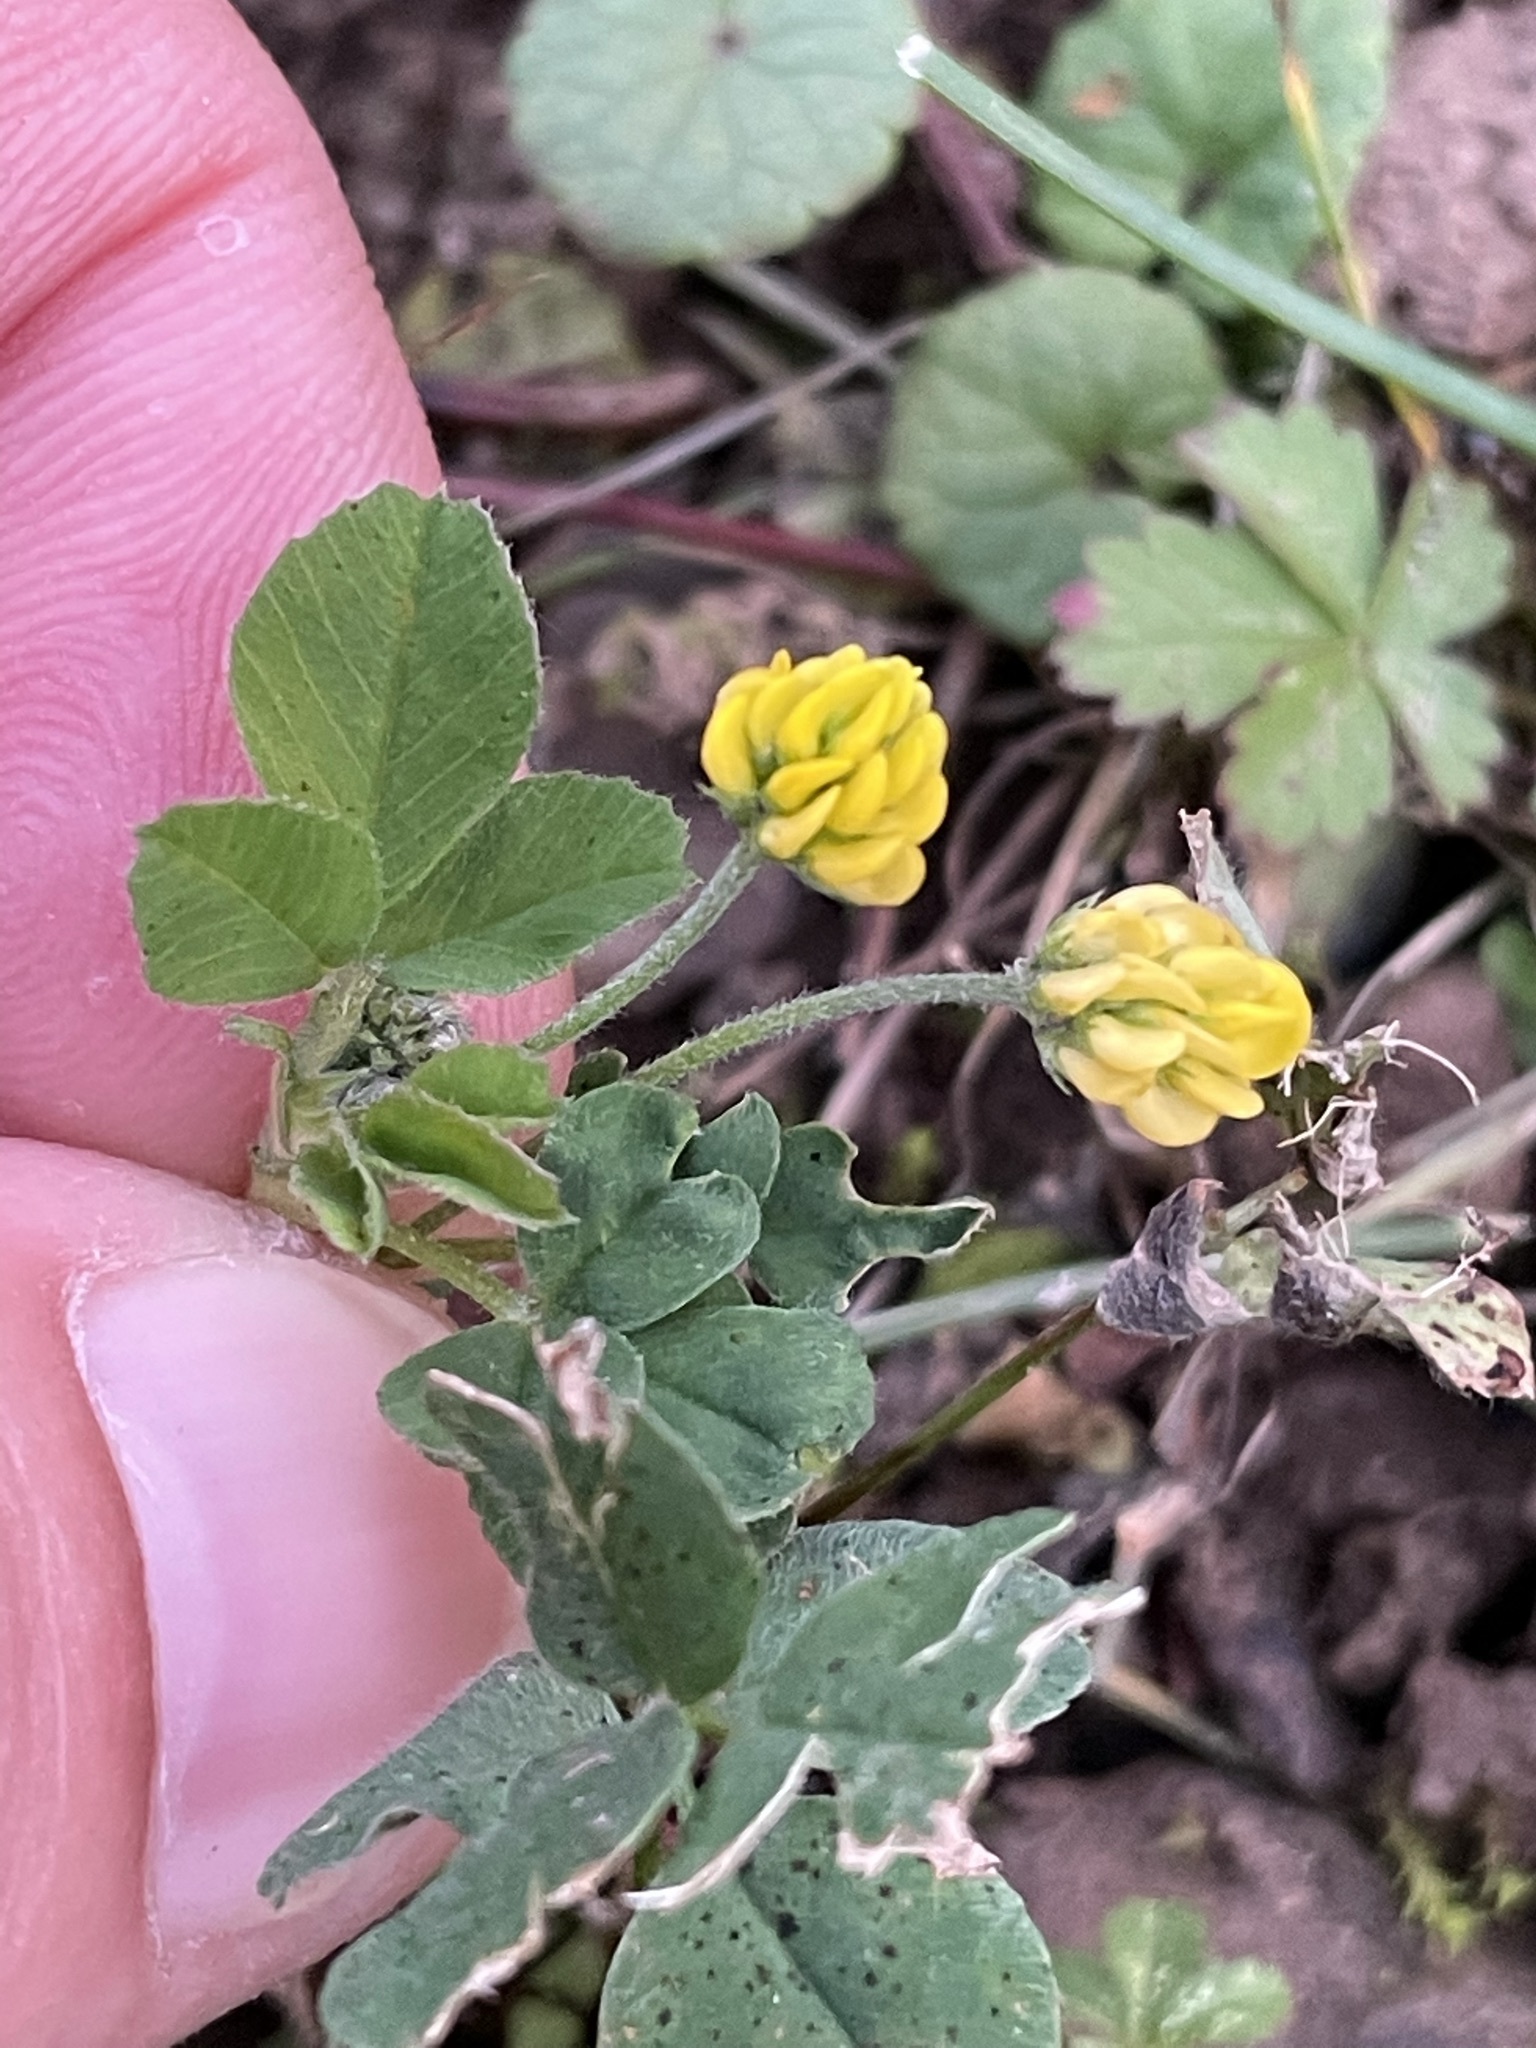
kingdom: Plantae
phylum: Tracheophyta
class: Magnoliopsida
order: Fabales
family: Fabaceae
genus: Medicago
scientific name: Medicago lupulina
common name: Black medick
